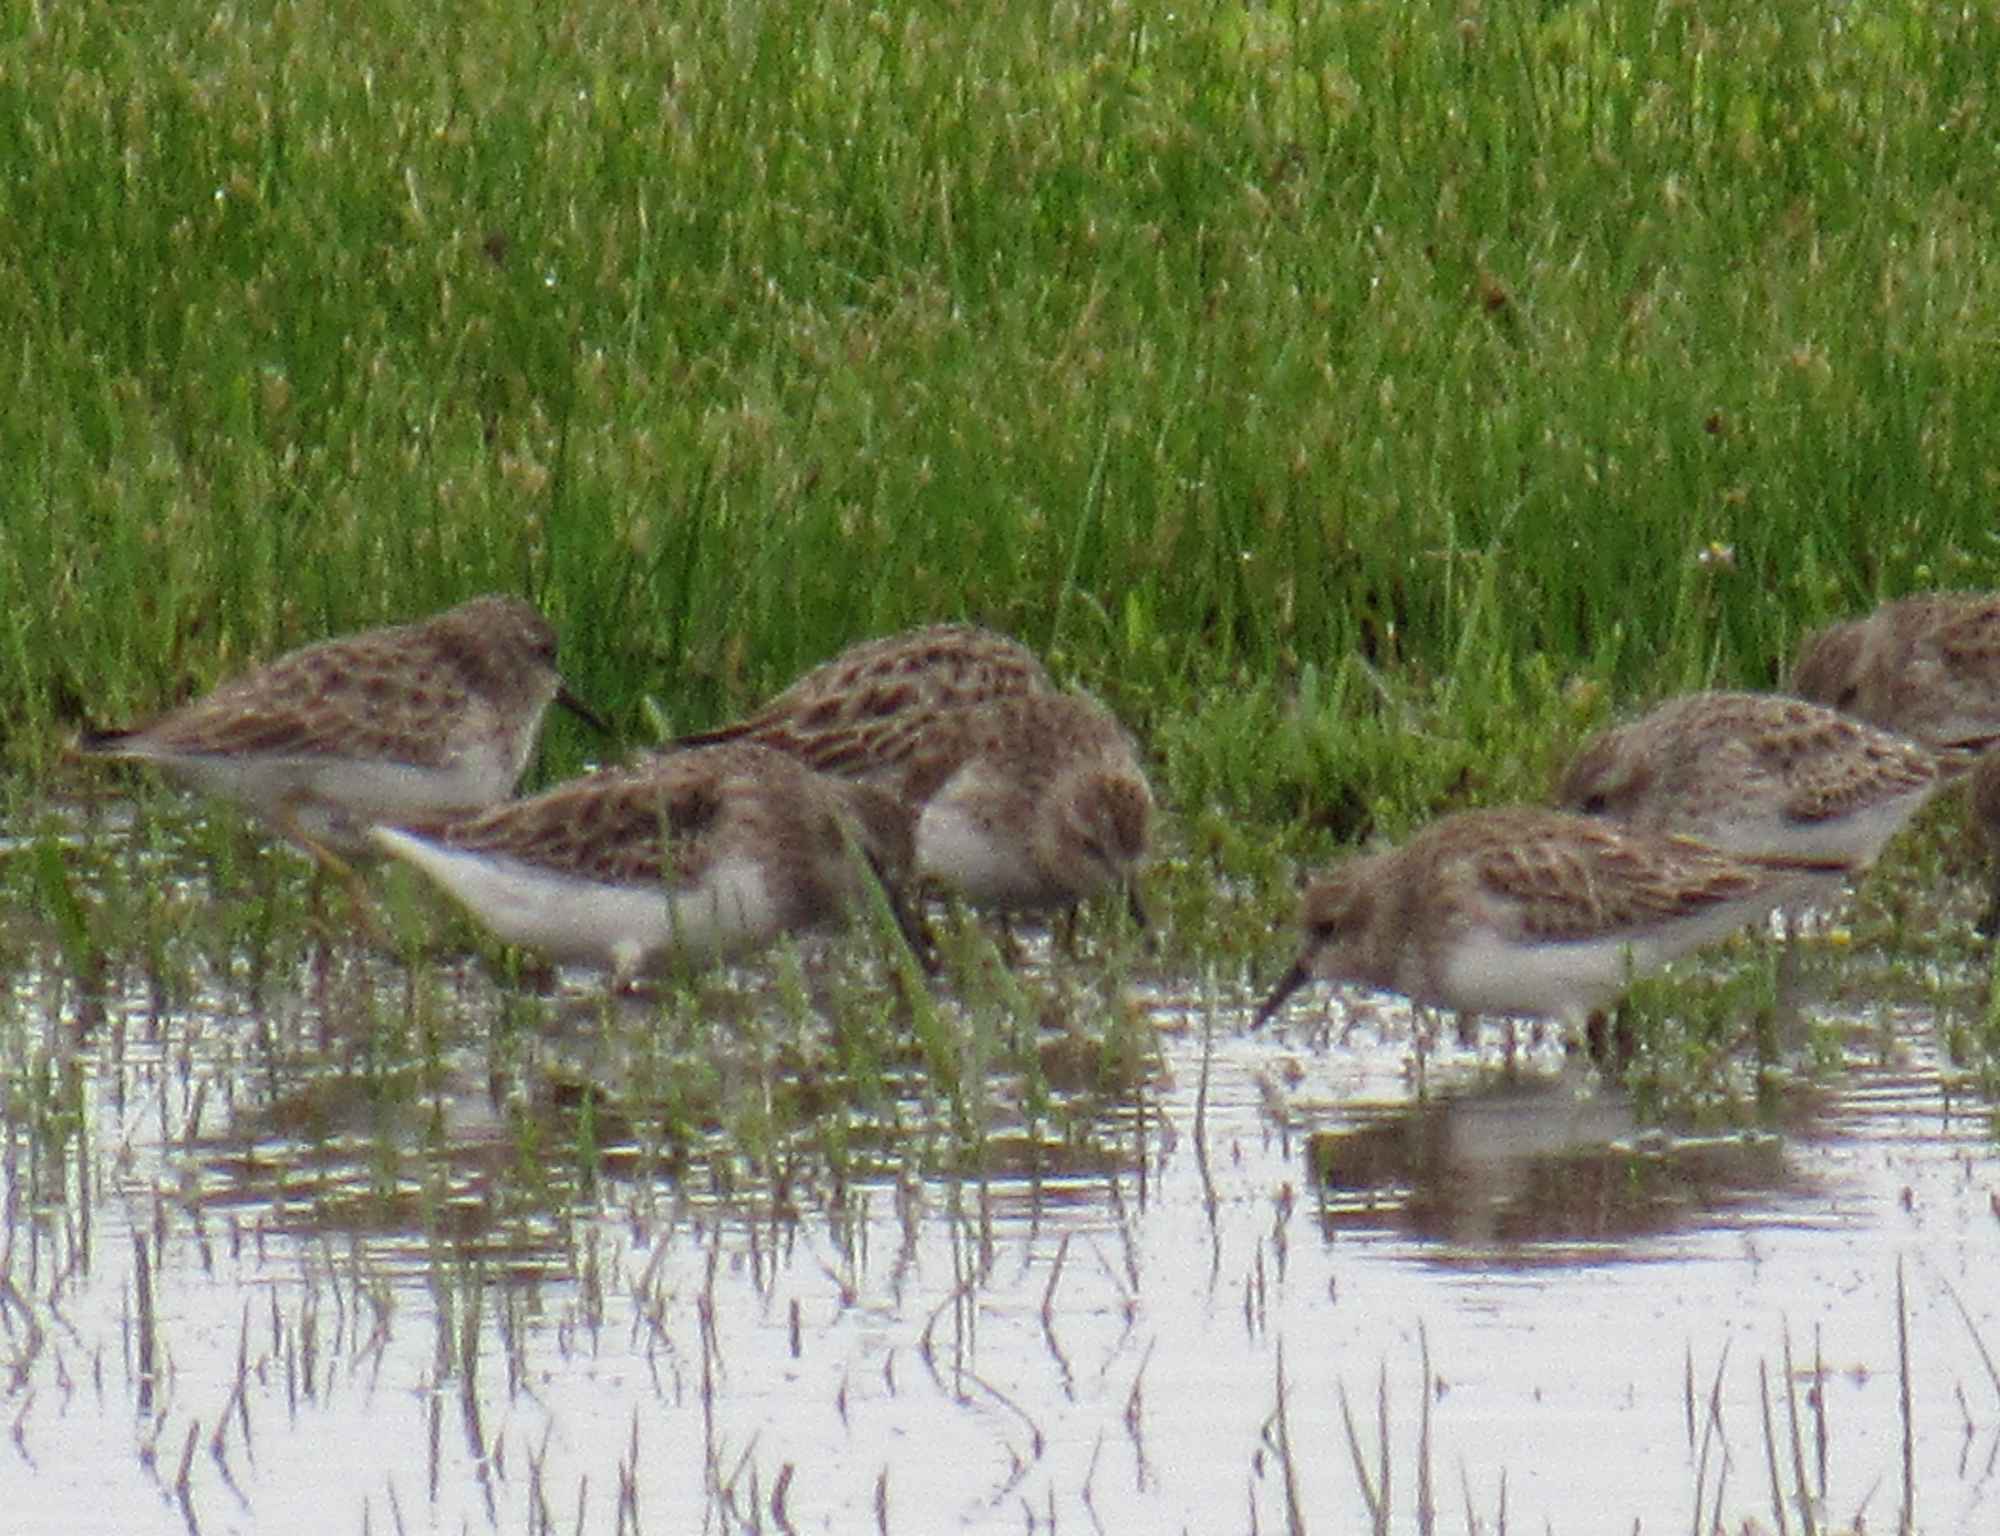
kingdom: Animalia
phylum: Chordata
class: Aves
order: Charadriiformes
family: Scolopacidae
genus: Calidris
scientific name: Calidris minutilla
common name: Least sandpiper
